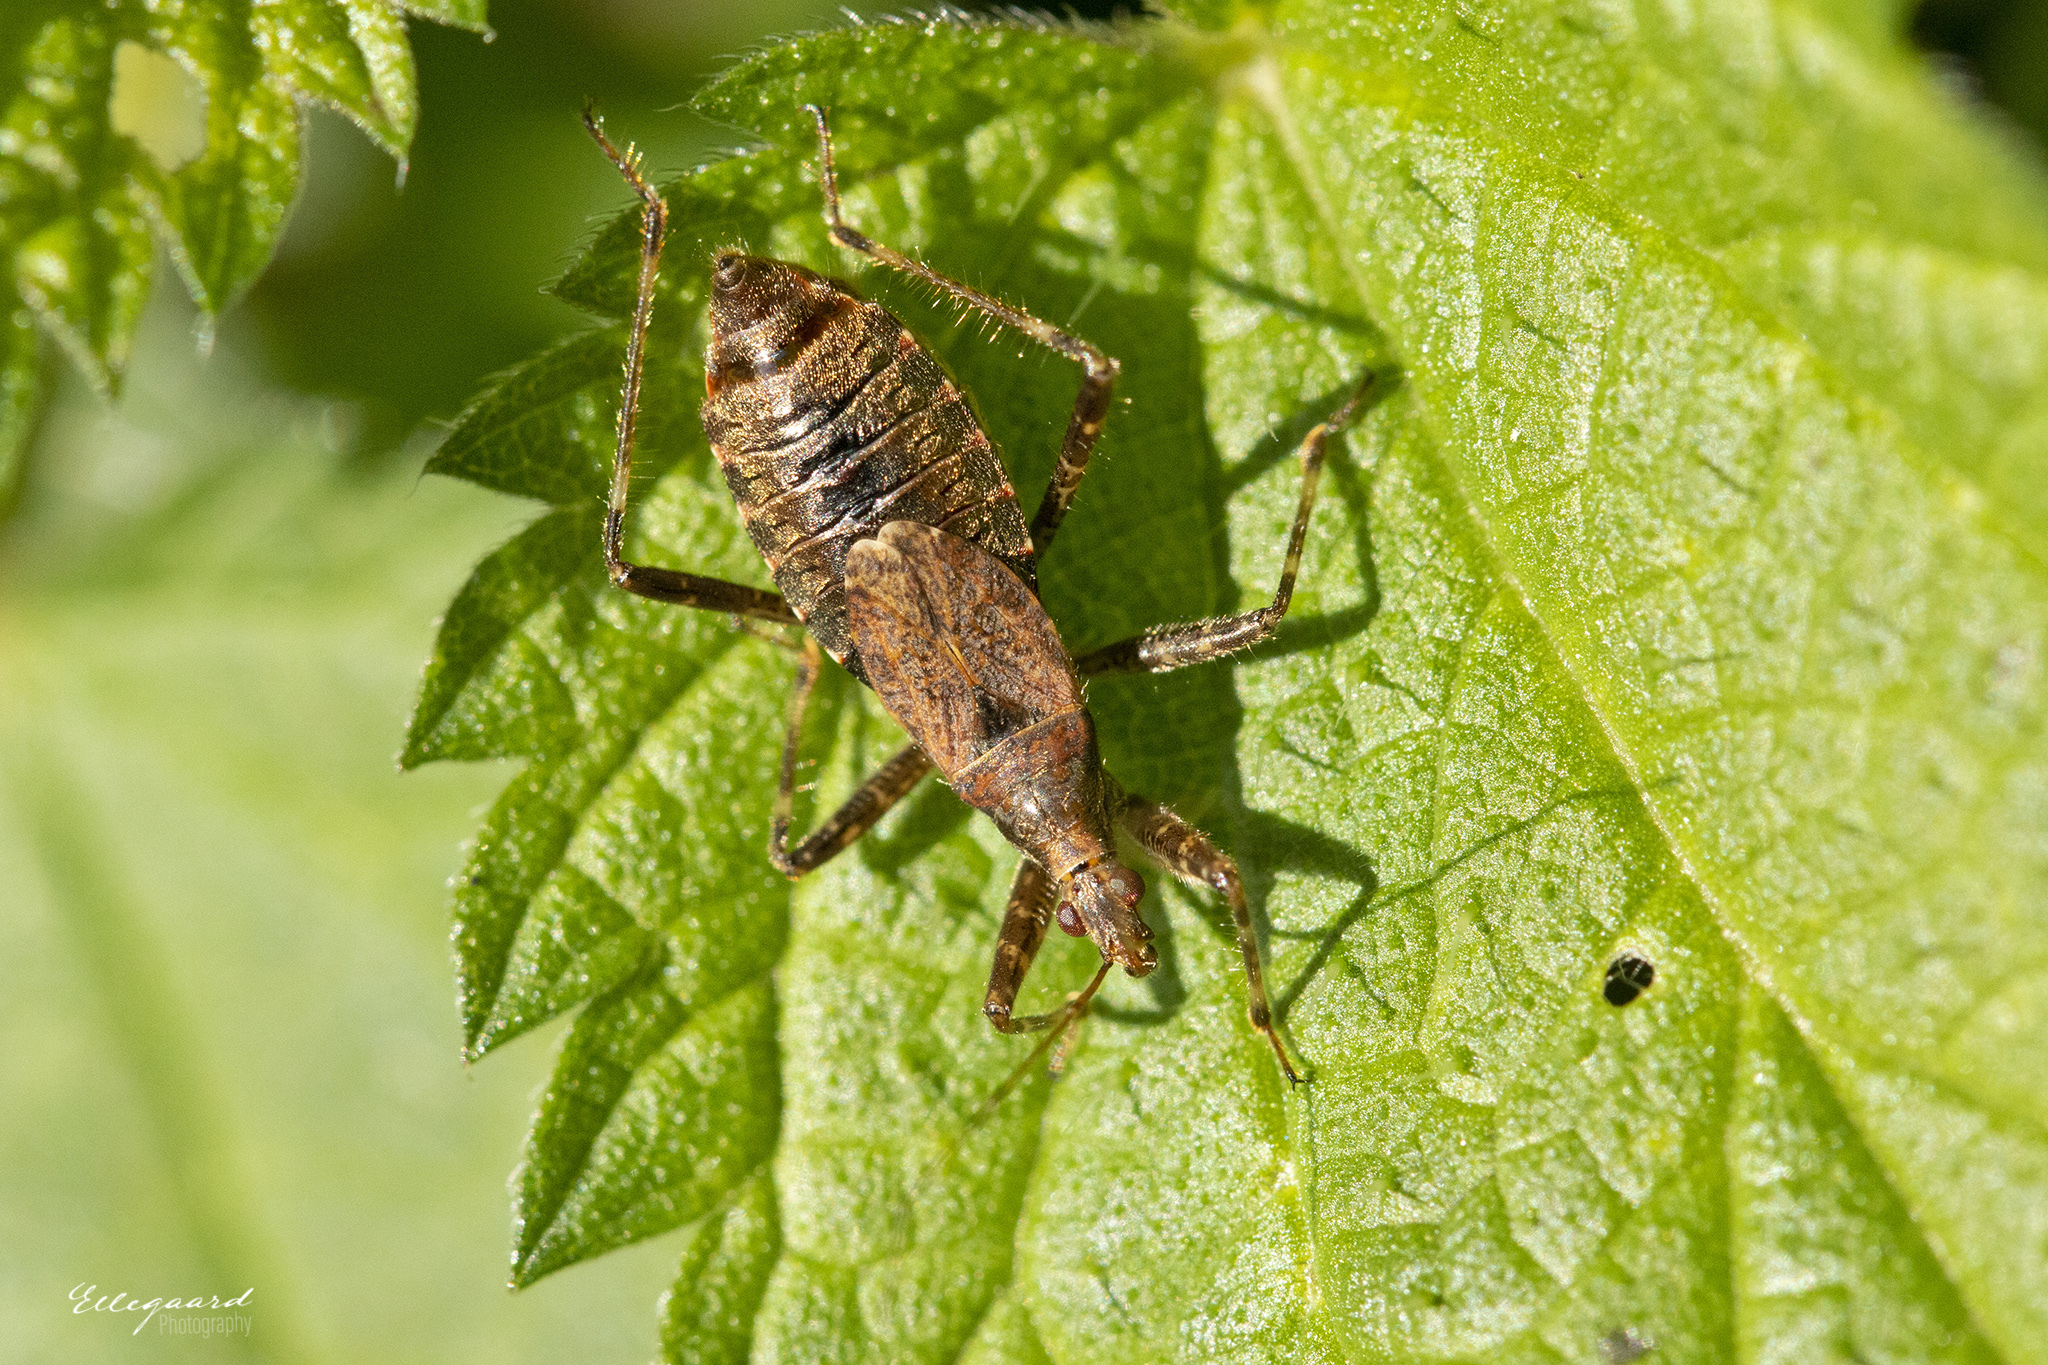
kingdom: Animalia
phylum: Arthropoda
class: Insecta
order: Hemiptera
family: Nabidae
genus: Himacerus
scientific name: Himacerus apterus
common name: Tree damsel bug
